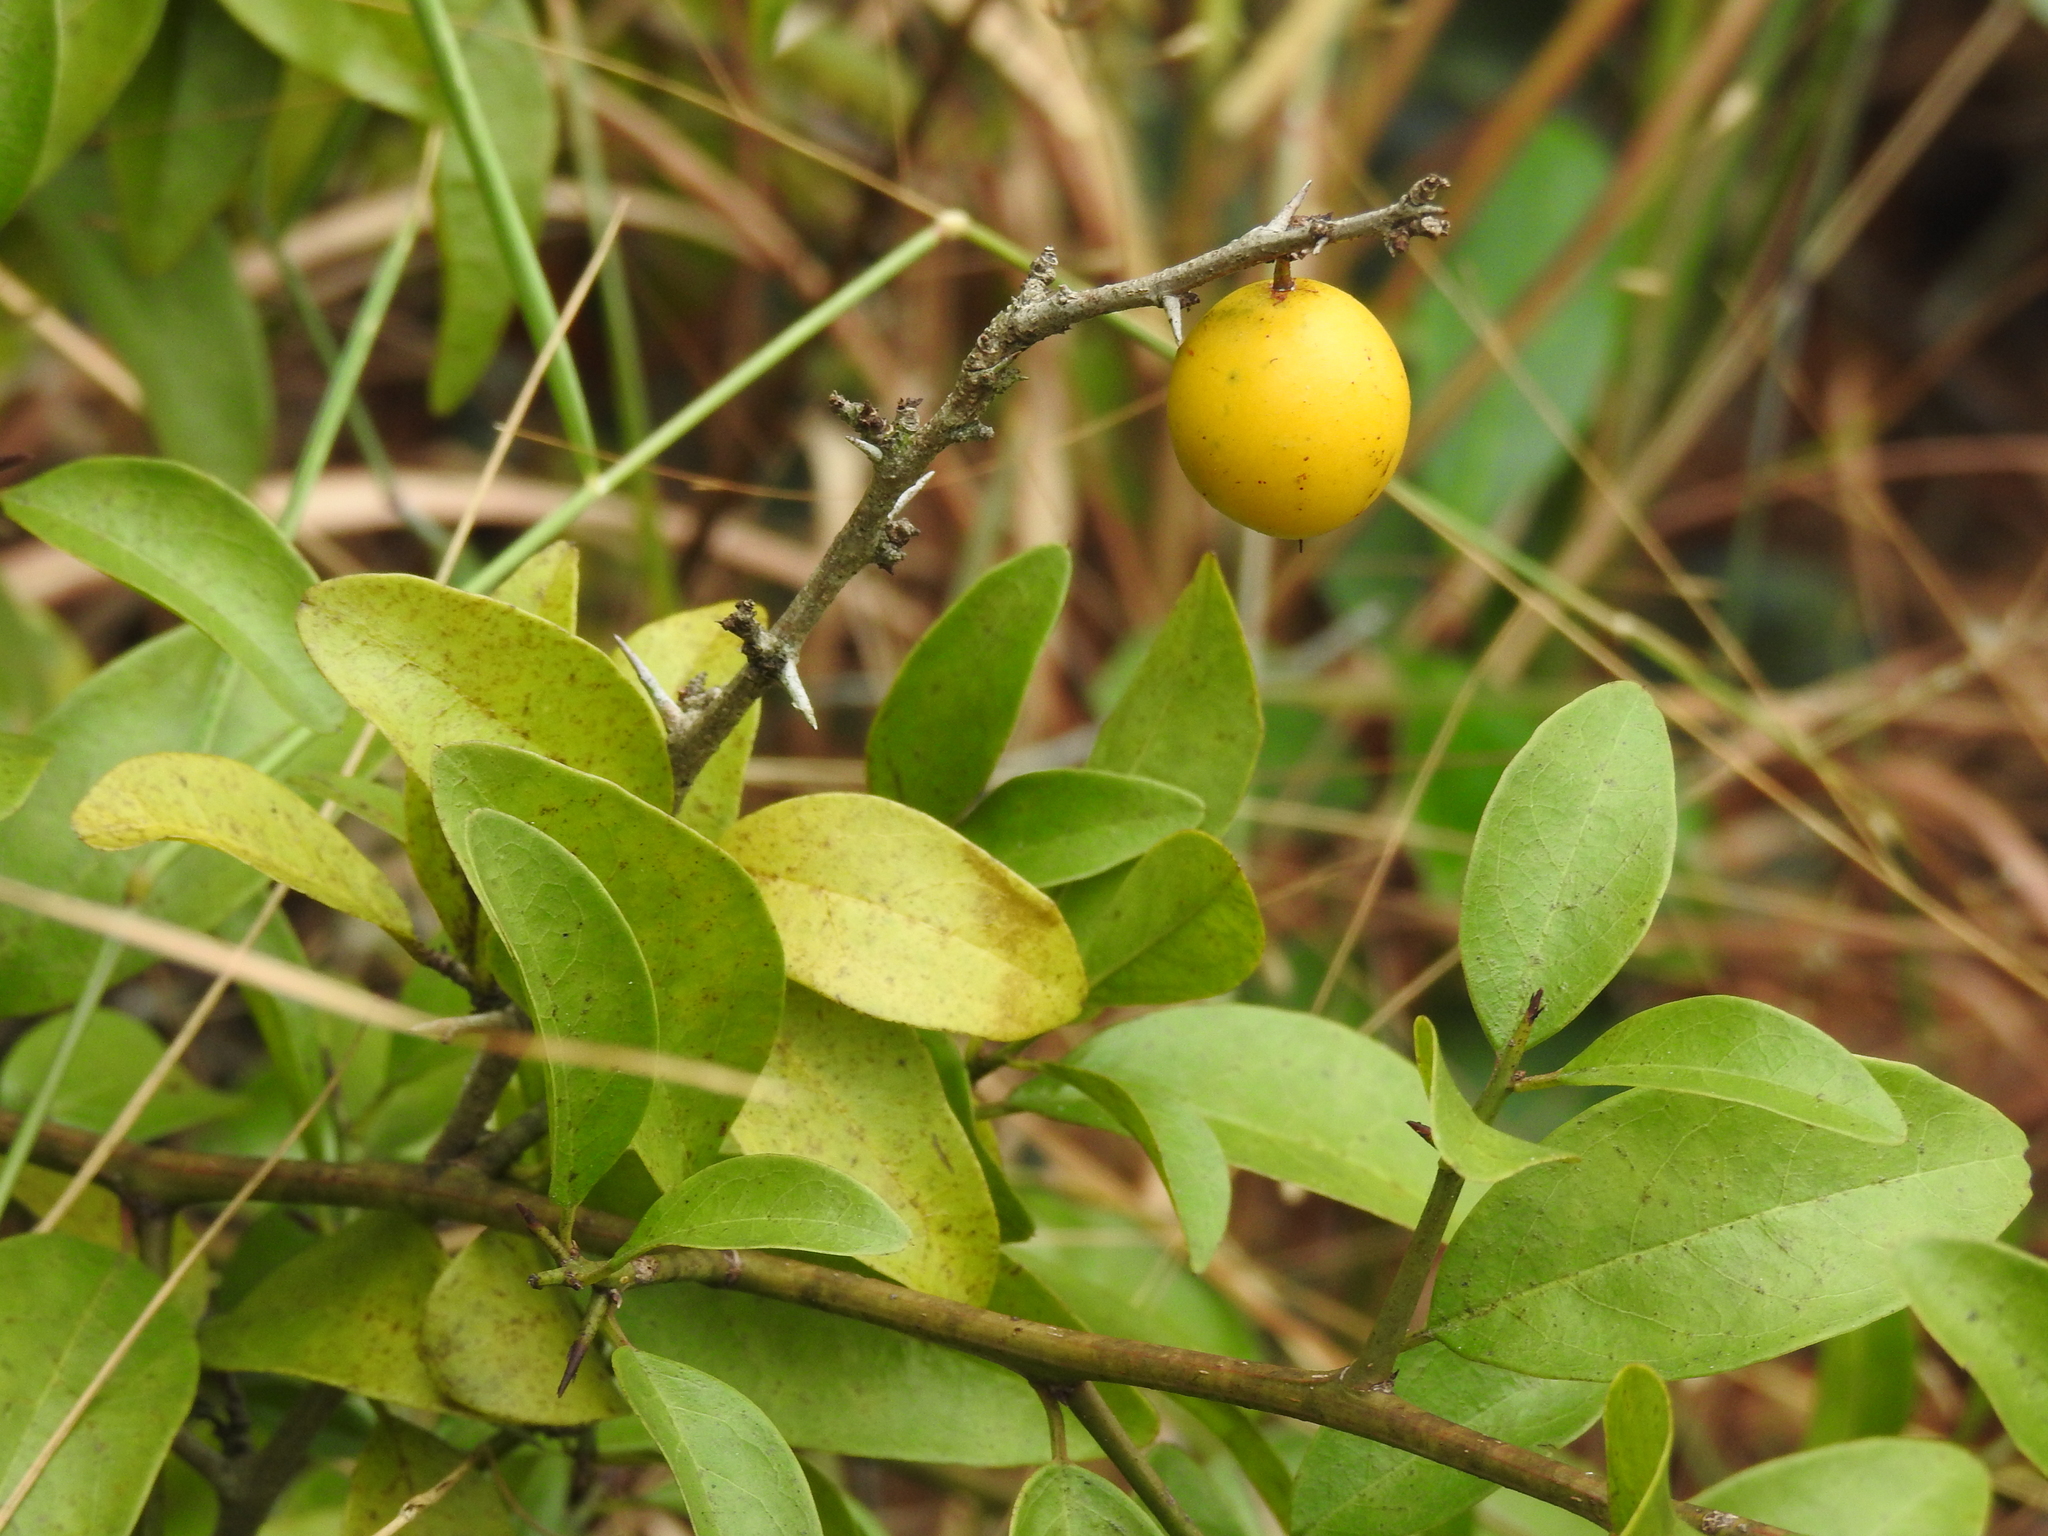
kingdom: Plantae
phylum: Tracheophyta
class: Magnoliopsida
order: Santalales
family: Ximeniaceae
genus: Ximenia
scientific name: Ximenia americana
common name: Tallowwood
